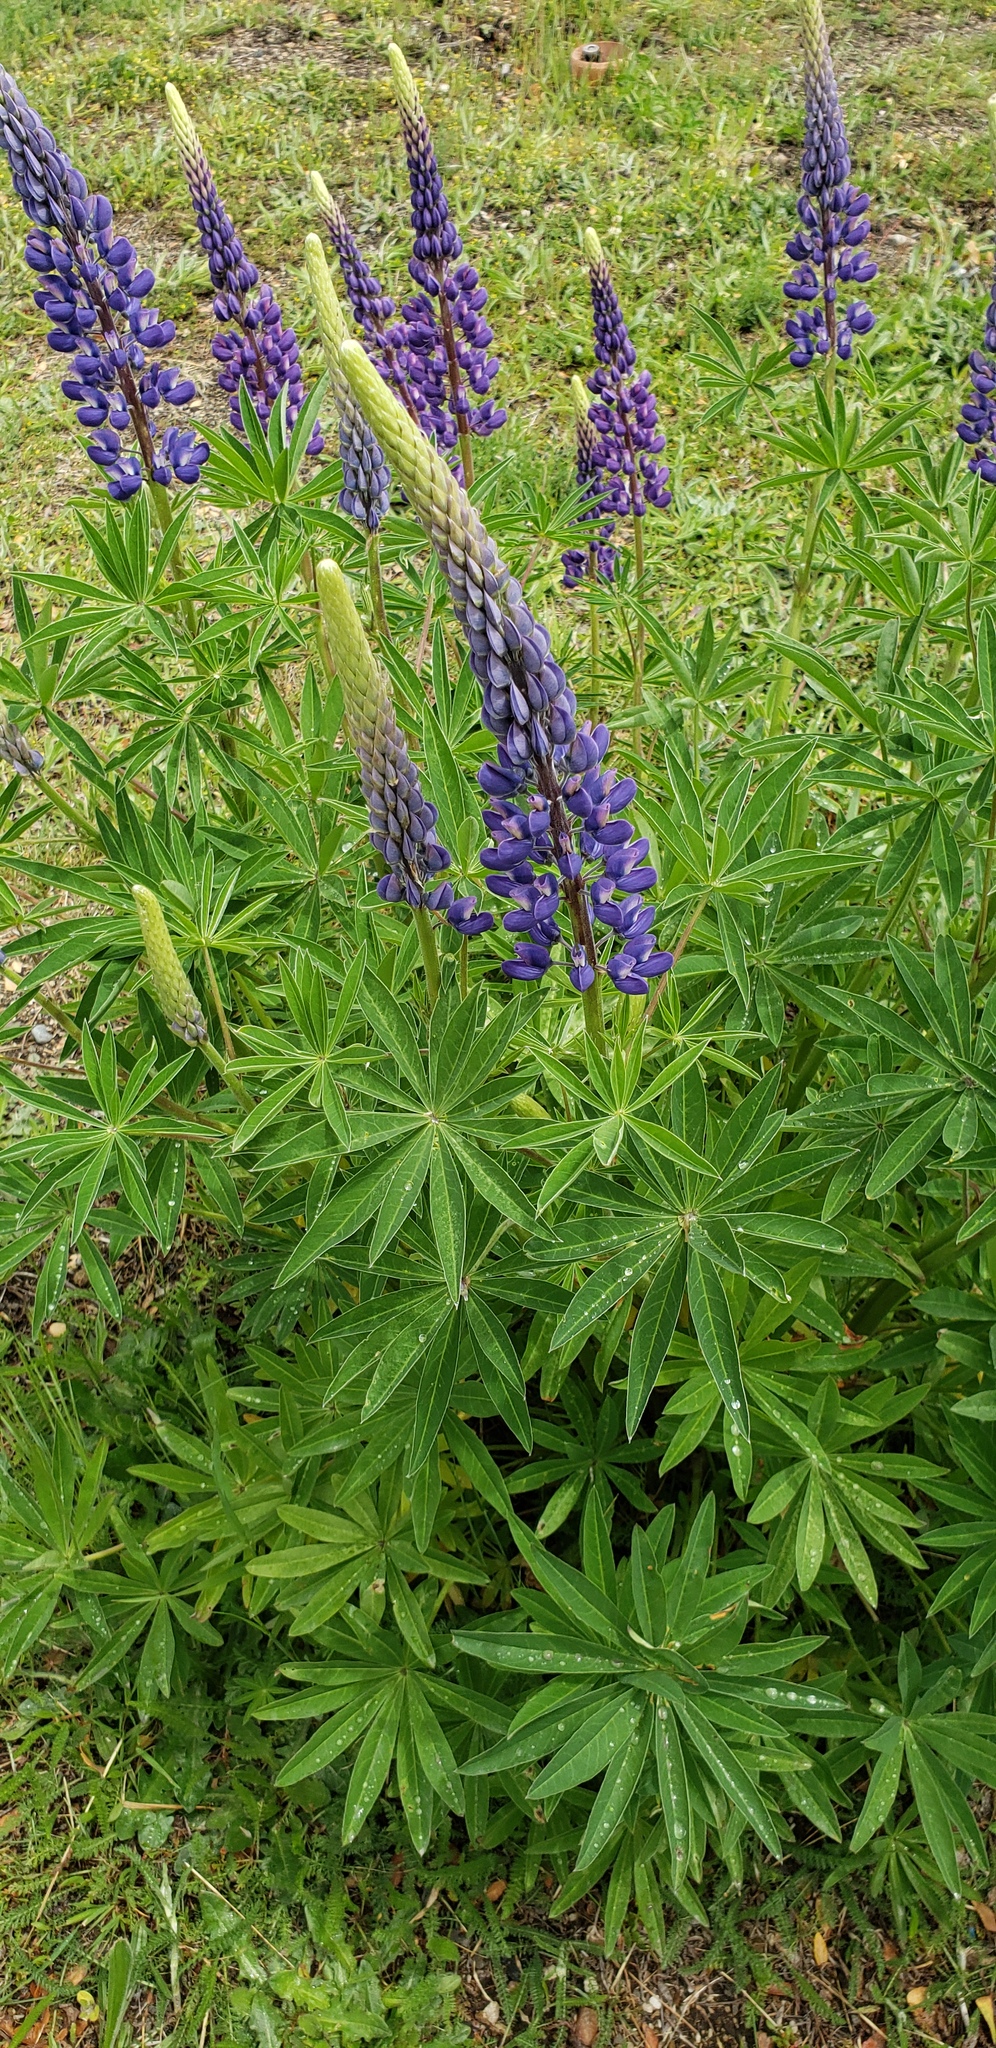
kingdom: Plantae
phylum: Tracheophyta
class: Magnoliopsida
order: Fabales
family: Fabaceae
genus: Lupinus
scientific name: Lupinus polyphyllus
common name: Garden lupin
